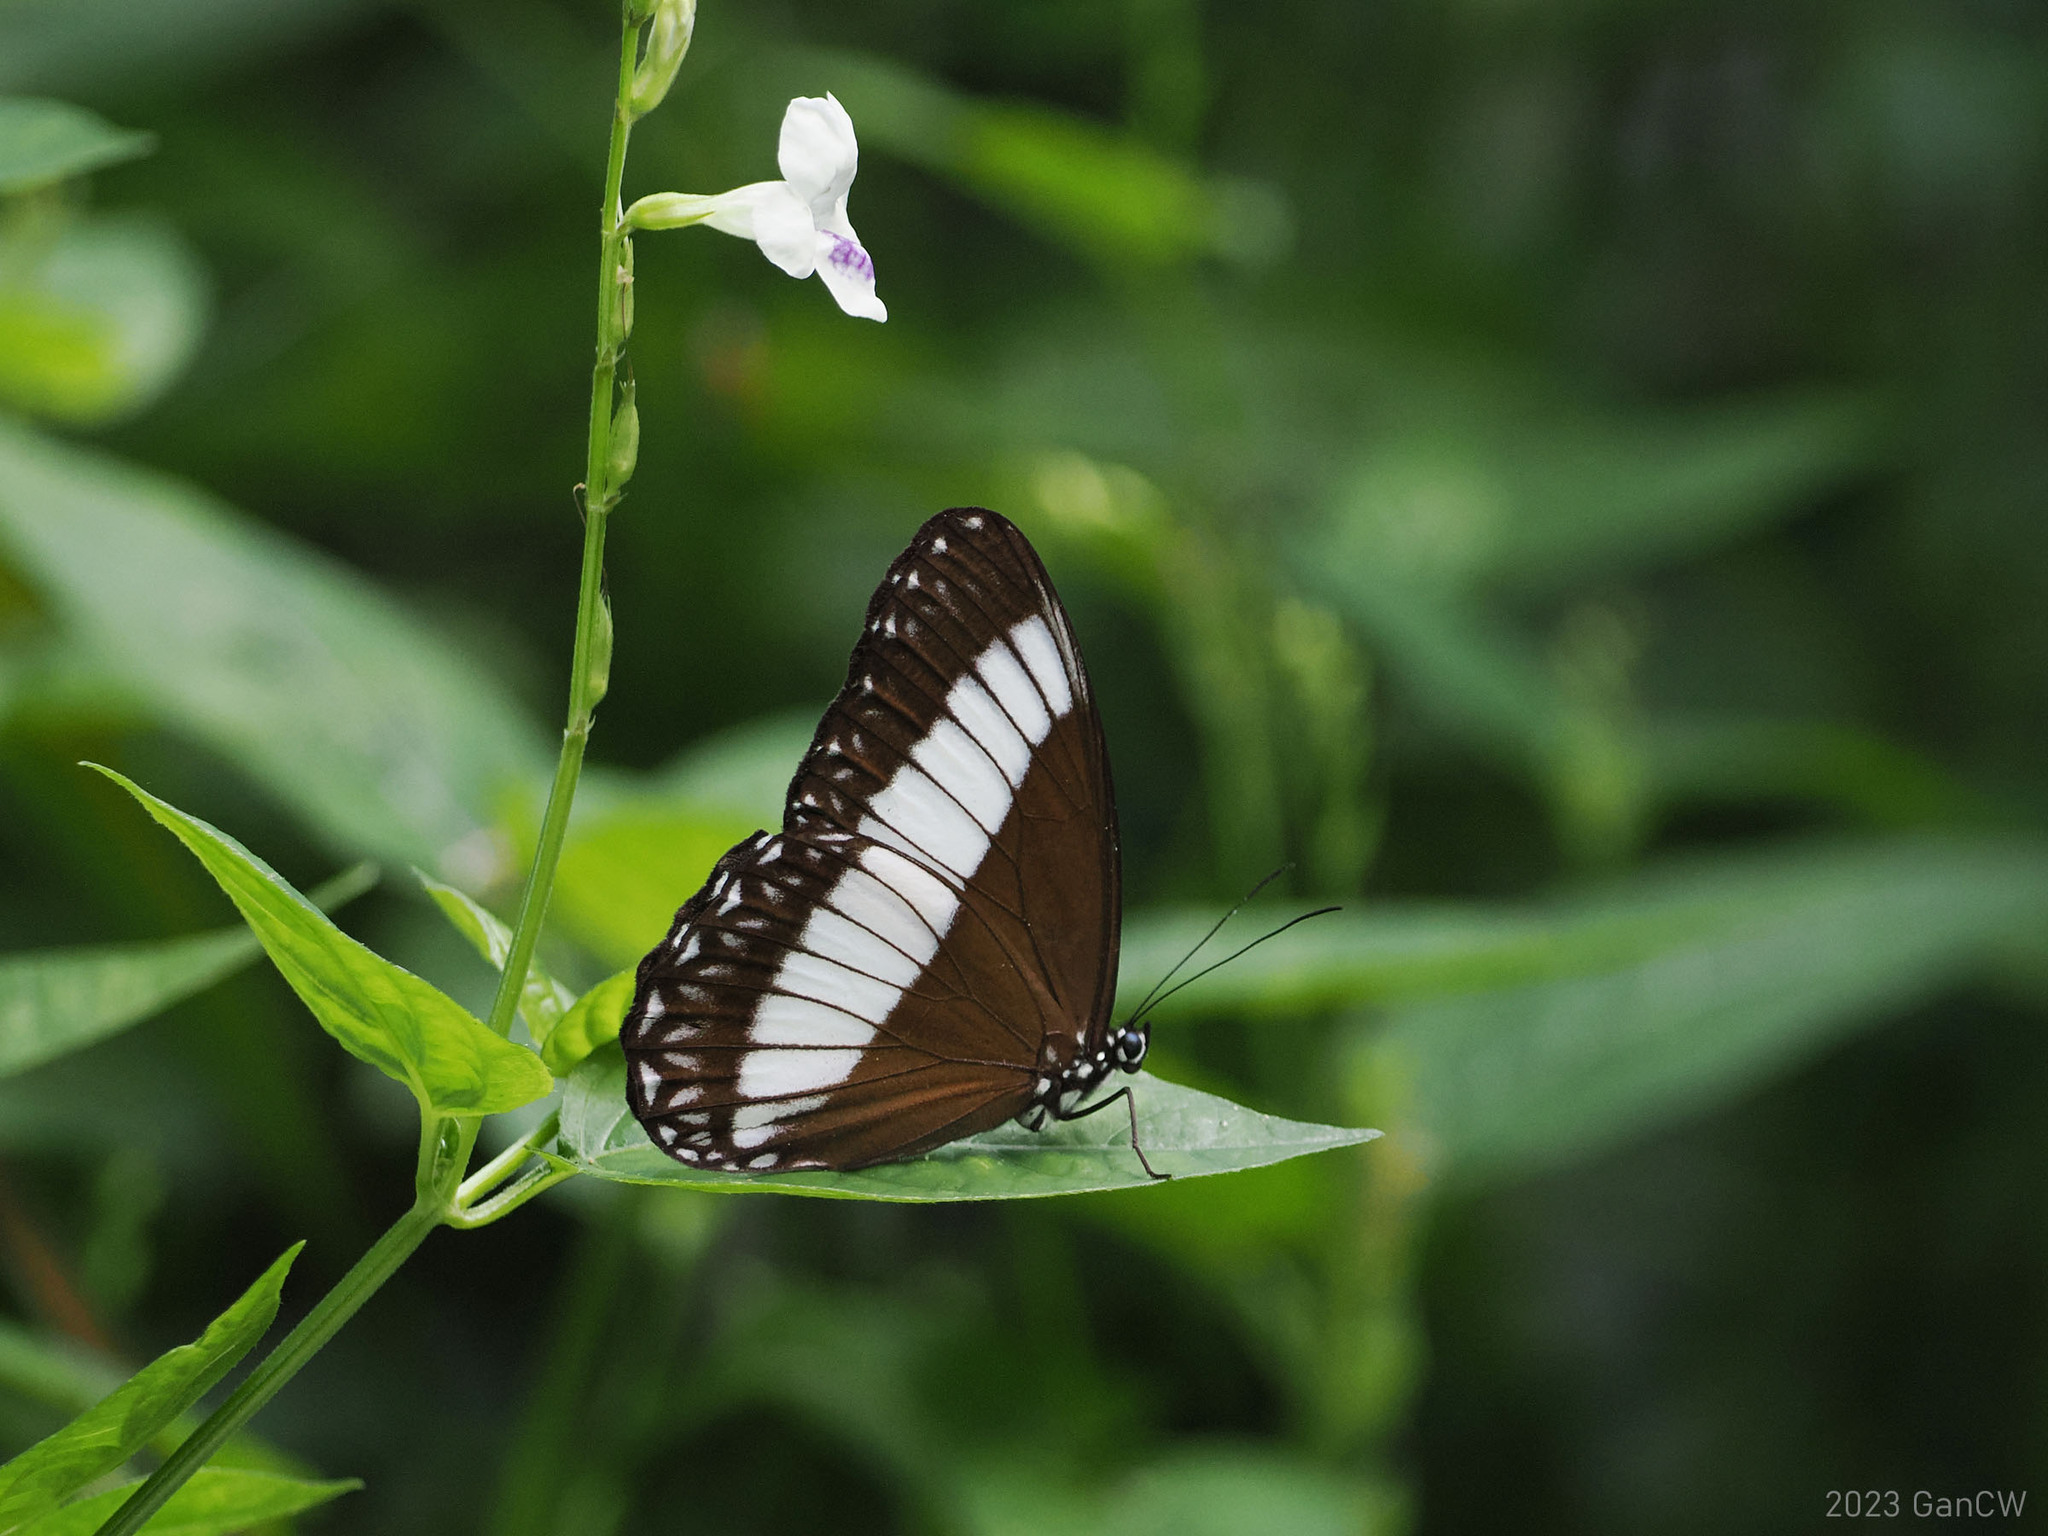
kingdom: Animalia
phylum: Arthropoda
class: Insecta
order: Lepidoptera
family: Nymphalidae
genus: Zethera
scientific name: Zethera pimplea
